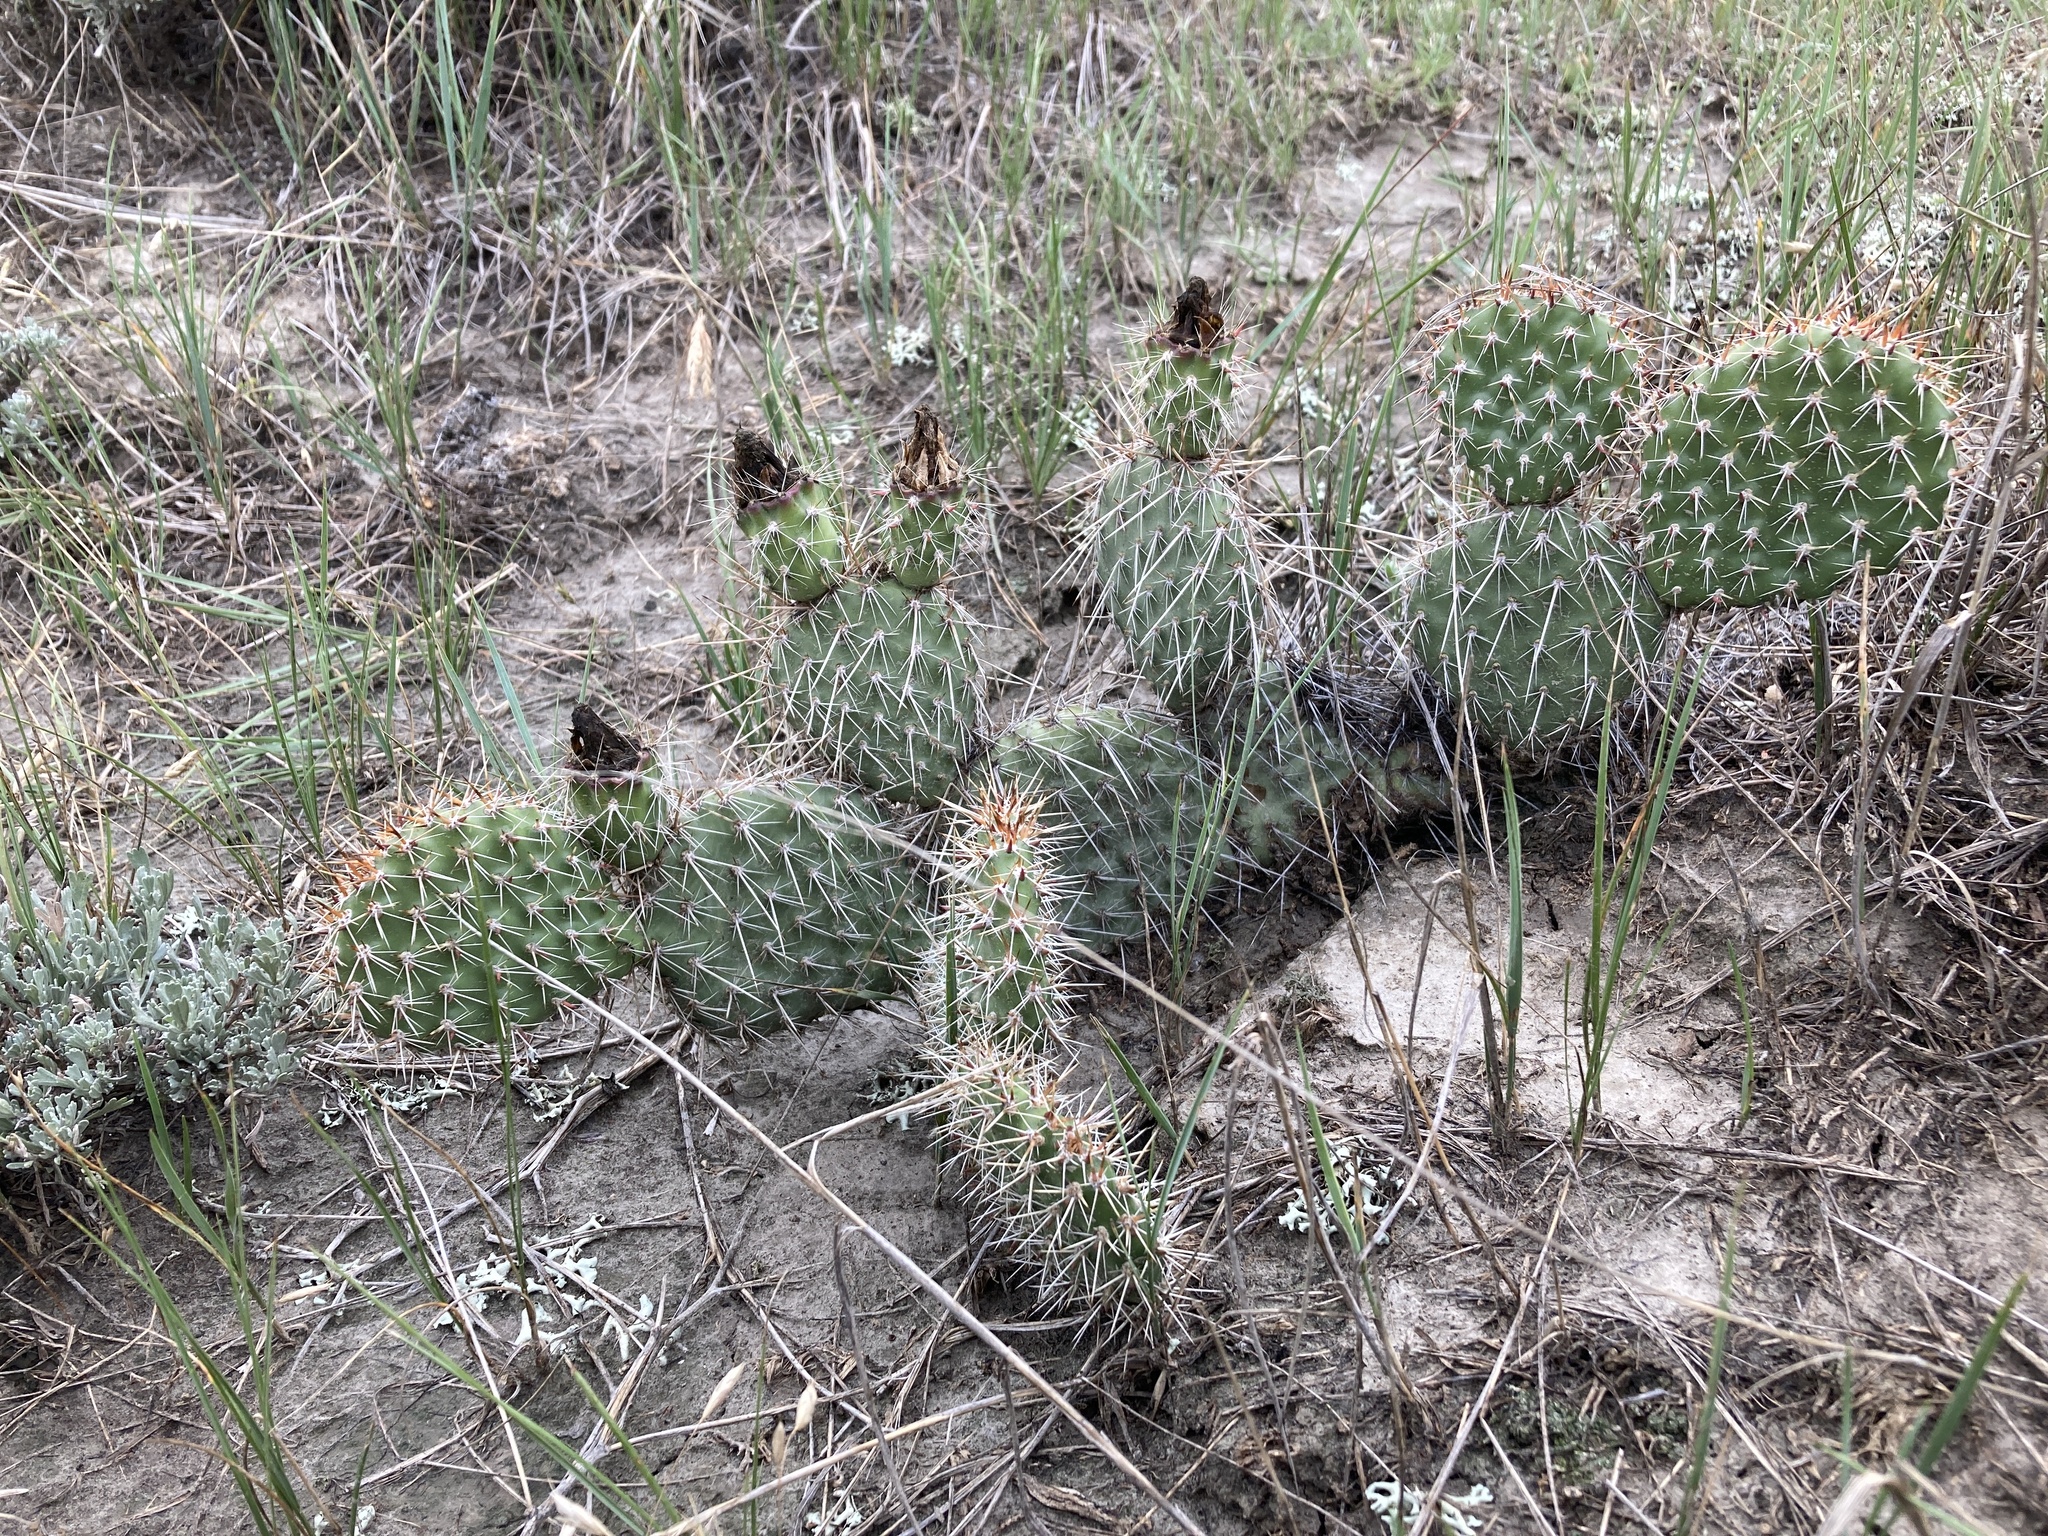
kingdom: Plantae
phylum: Tracheophyta
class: Magnoliopsida
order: Caryophyllales
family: Cactaceae
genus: Opuntia
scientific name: Opuntia polyacantha
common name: Plains prickly-pear
